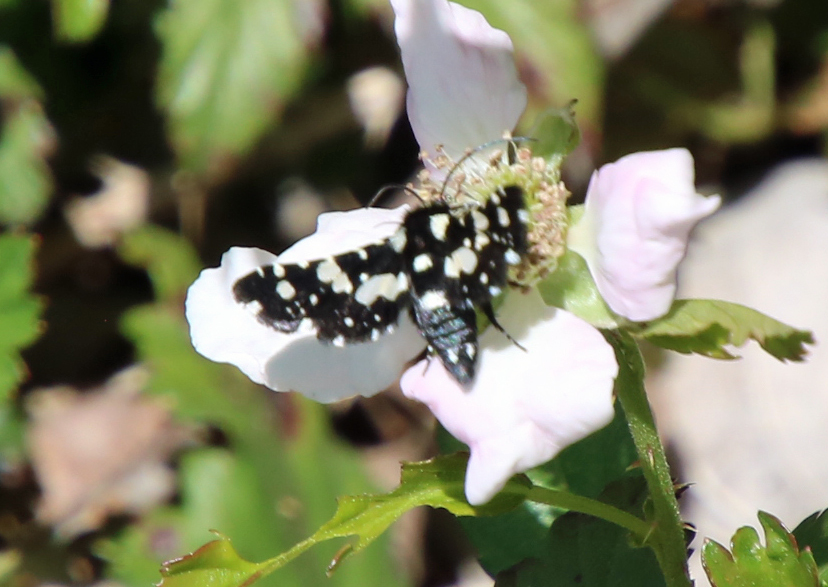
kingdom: Animalia
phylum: Arthropoda
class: Insecta
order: Lepidoptera
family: Thyrididae
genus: Pseudothyris
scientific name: Pseudothyris sepulchralis
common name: Mournful thyris moth
